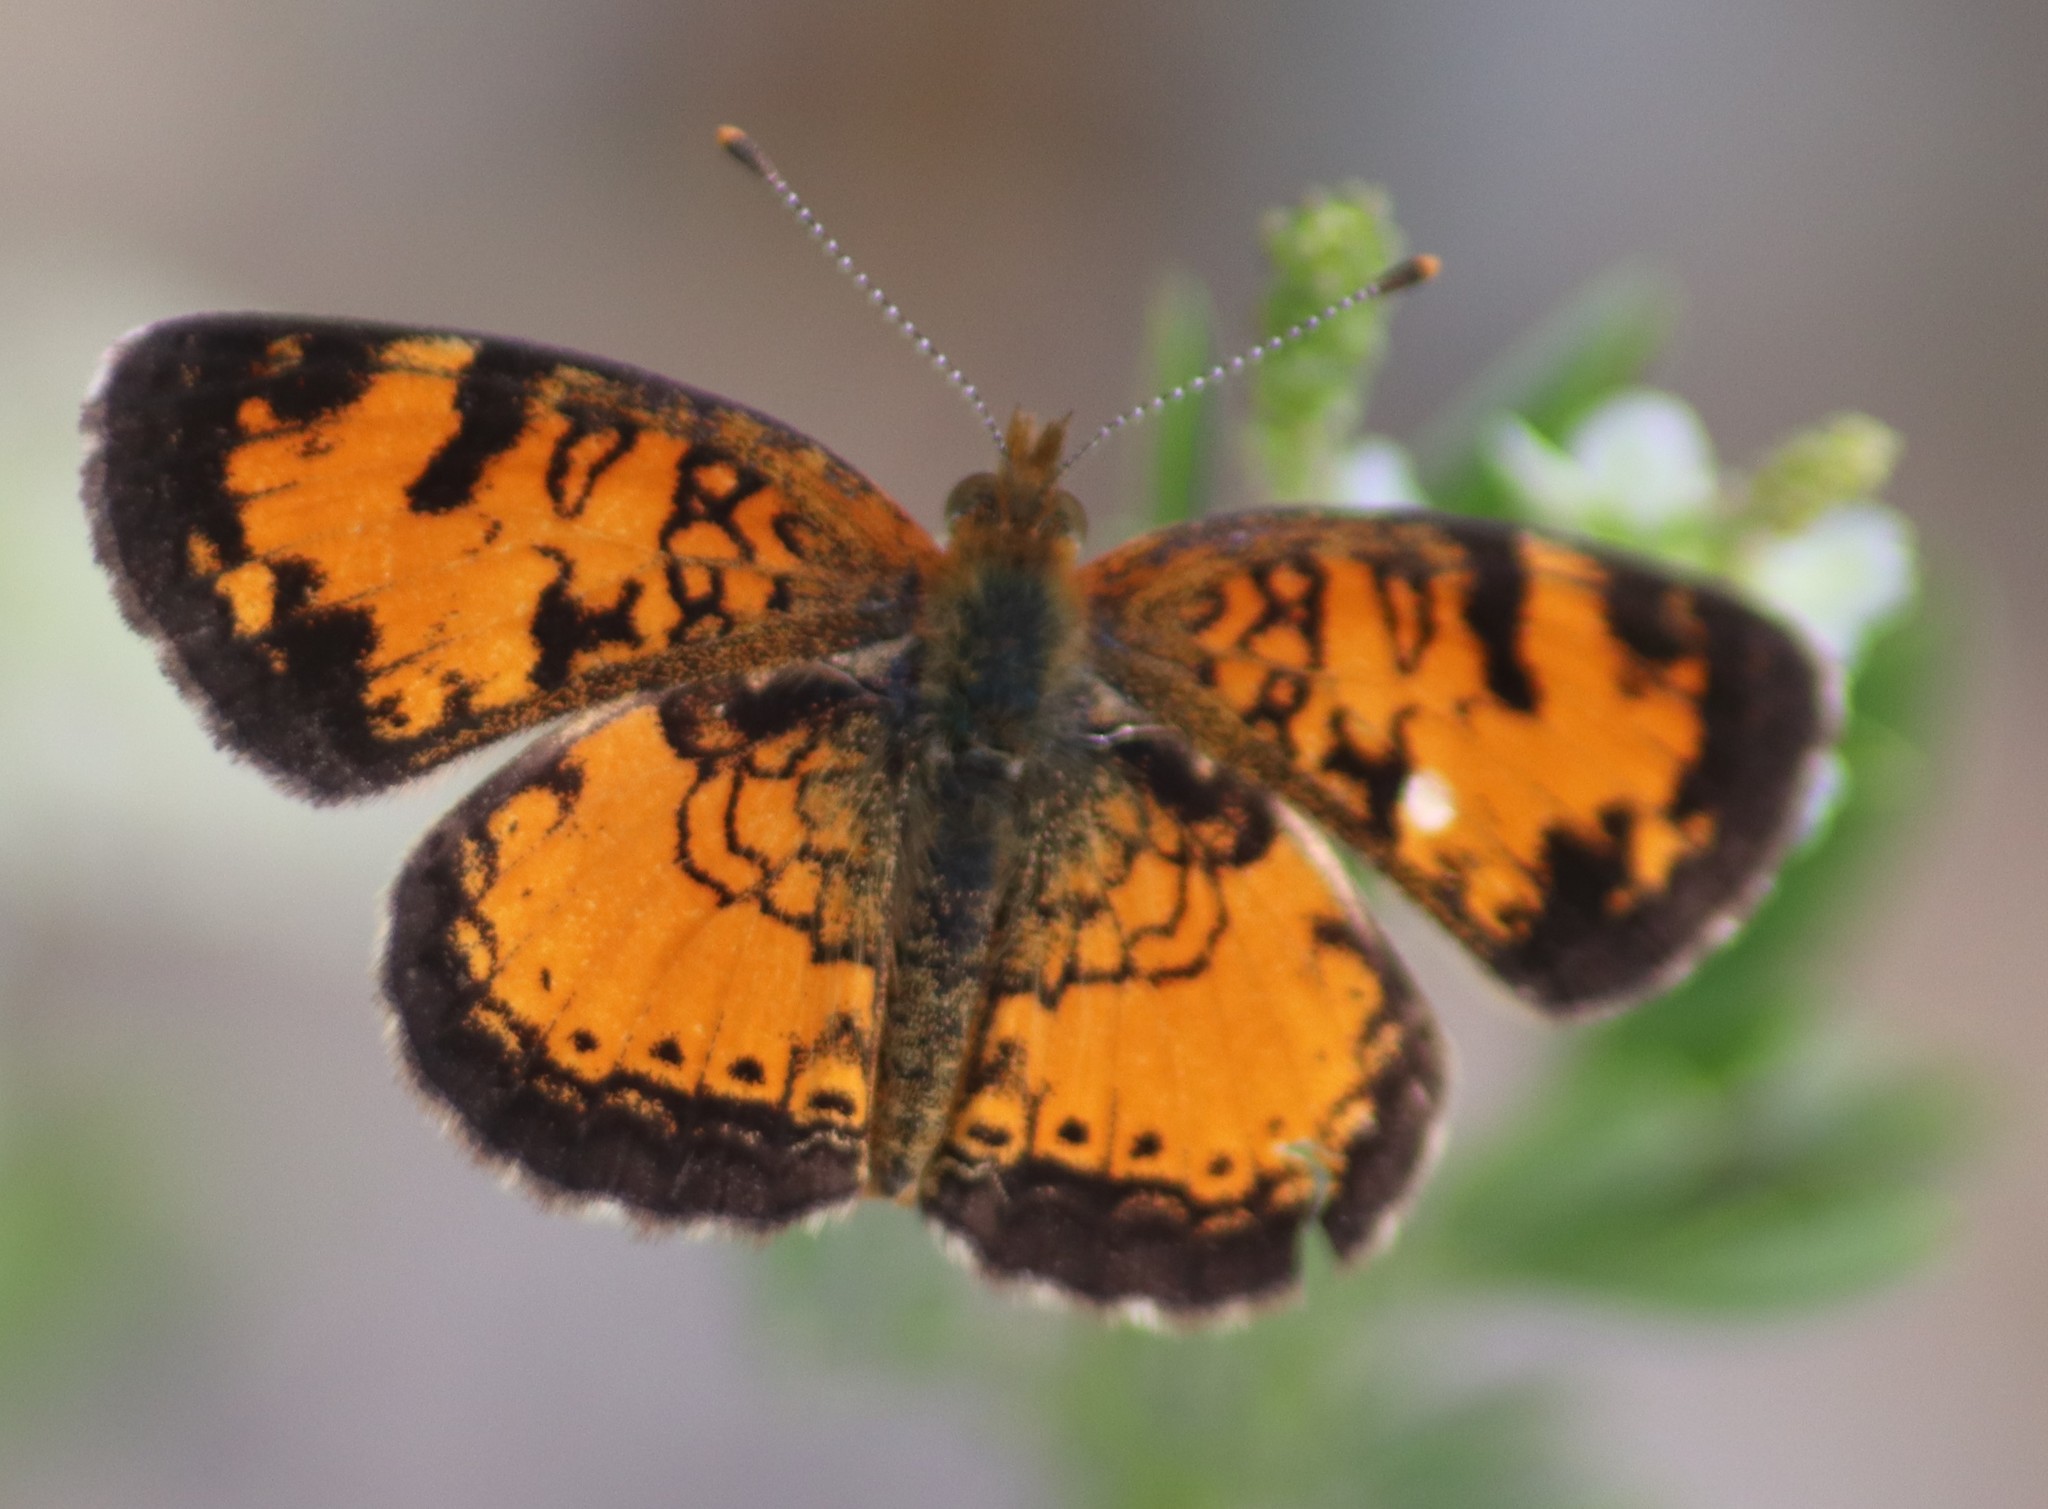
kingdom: Animalia
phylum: Arthropoda
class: Insecta
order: Lepidoptera
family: Nymphalidae
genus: Phyciodes
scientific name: Phyciodes tharos
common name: Pearl crescent
